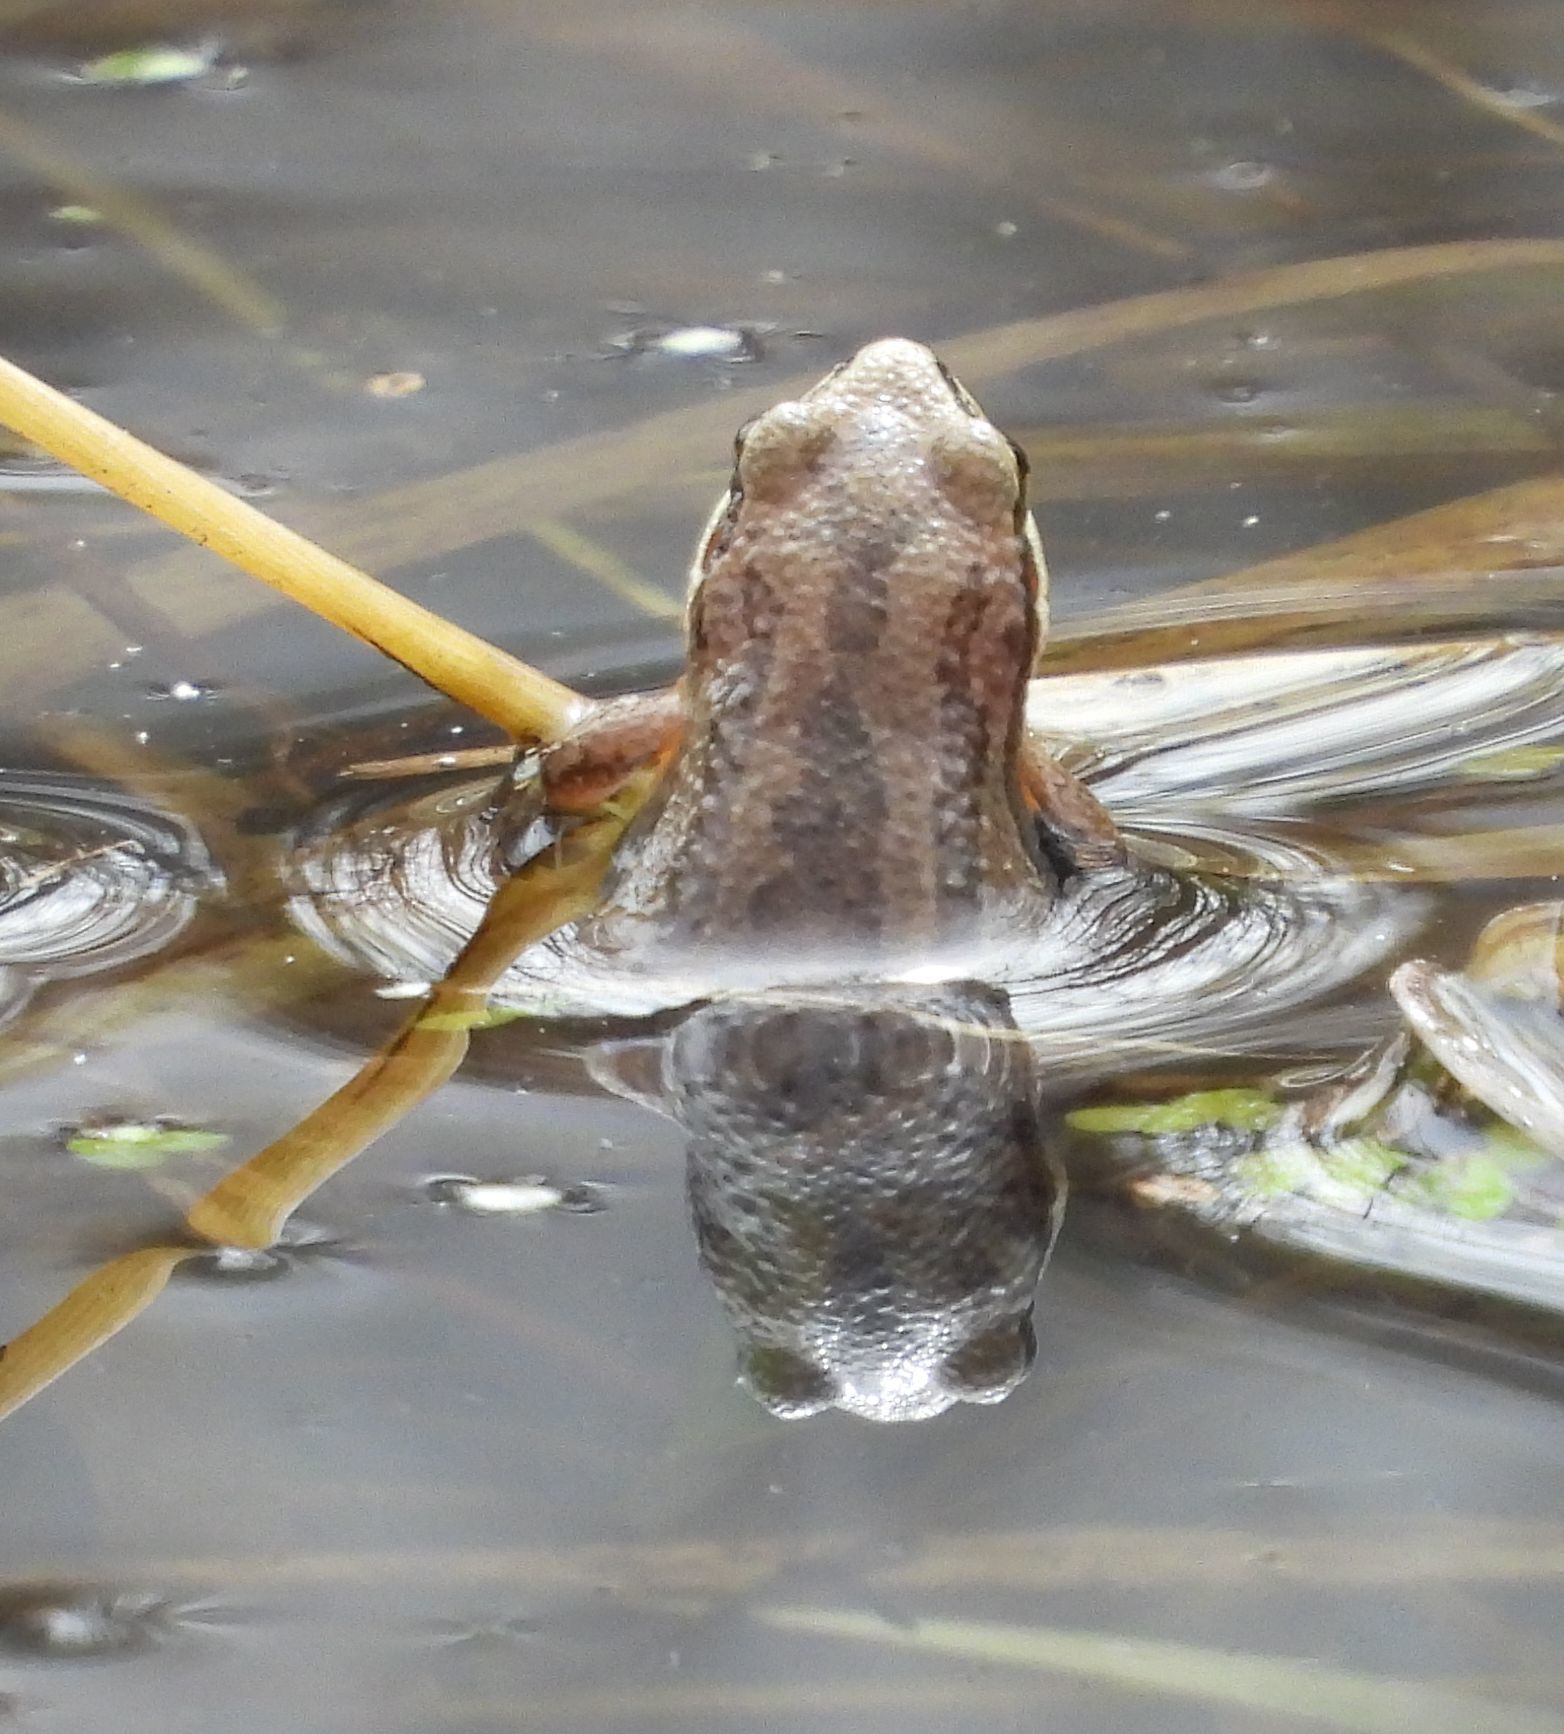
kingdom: Animalia
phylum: Chordata
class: Amphibia
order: Anura
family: Hylidae
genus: Pseudacris
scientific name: Pseudacris maculata
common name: Boreal chorus frog
